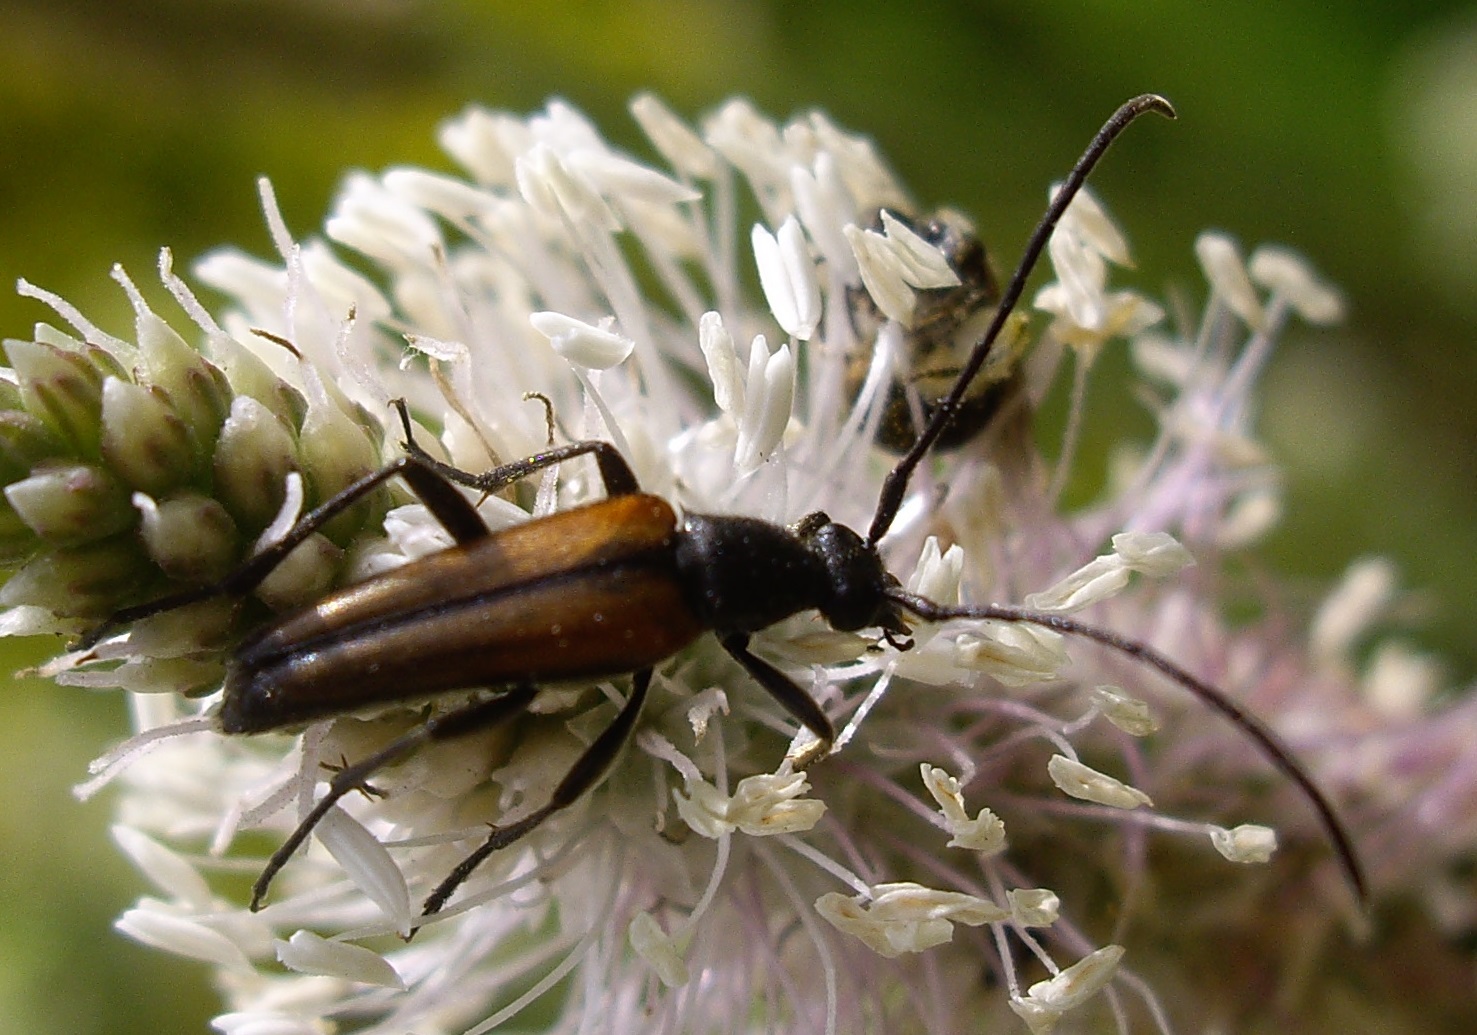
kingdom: Animalia
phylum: Arthropoda
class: Insecta
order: Coleoptera
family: Cerambycidae
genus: Stenurella
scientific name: Stenurella melanura
